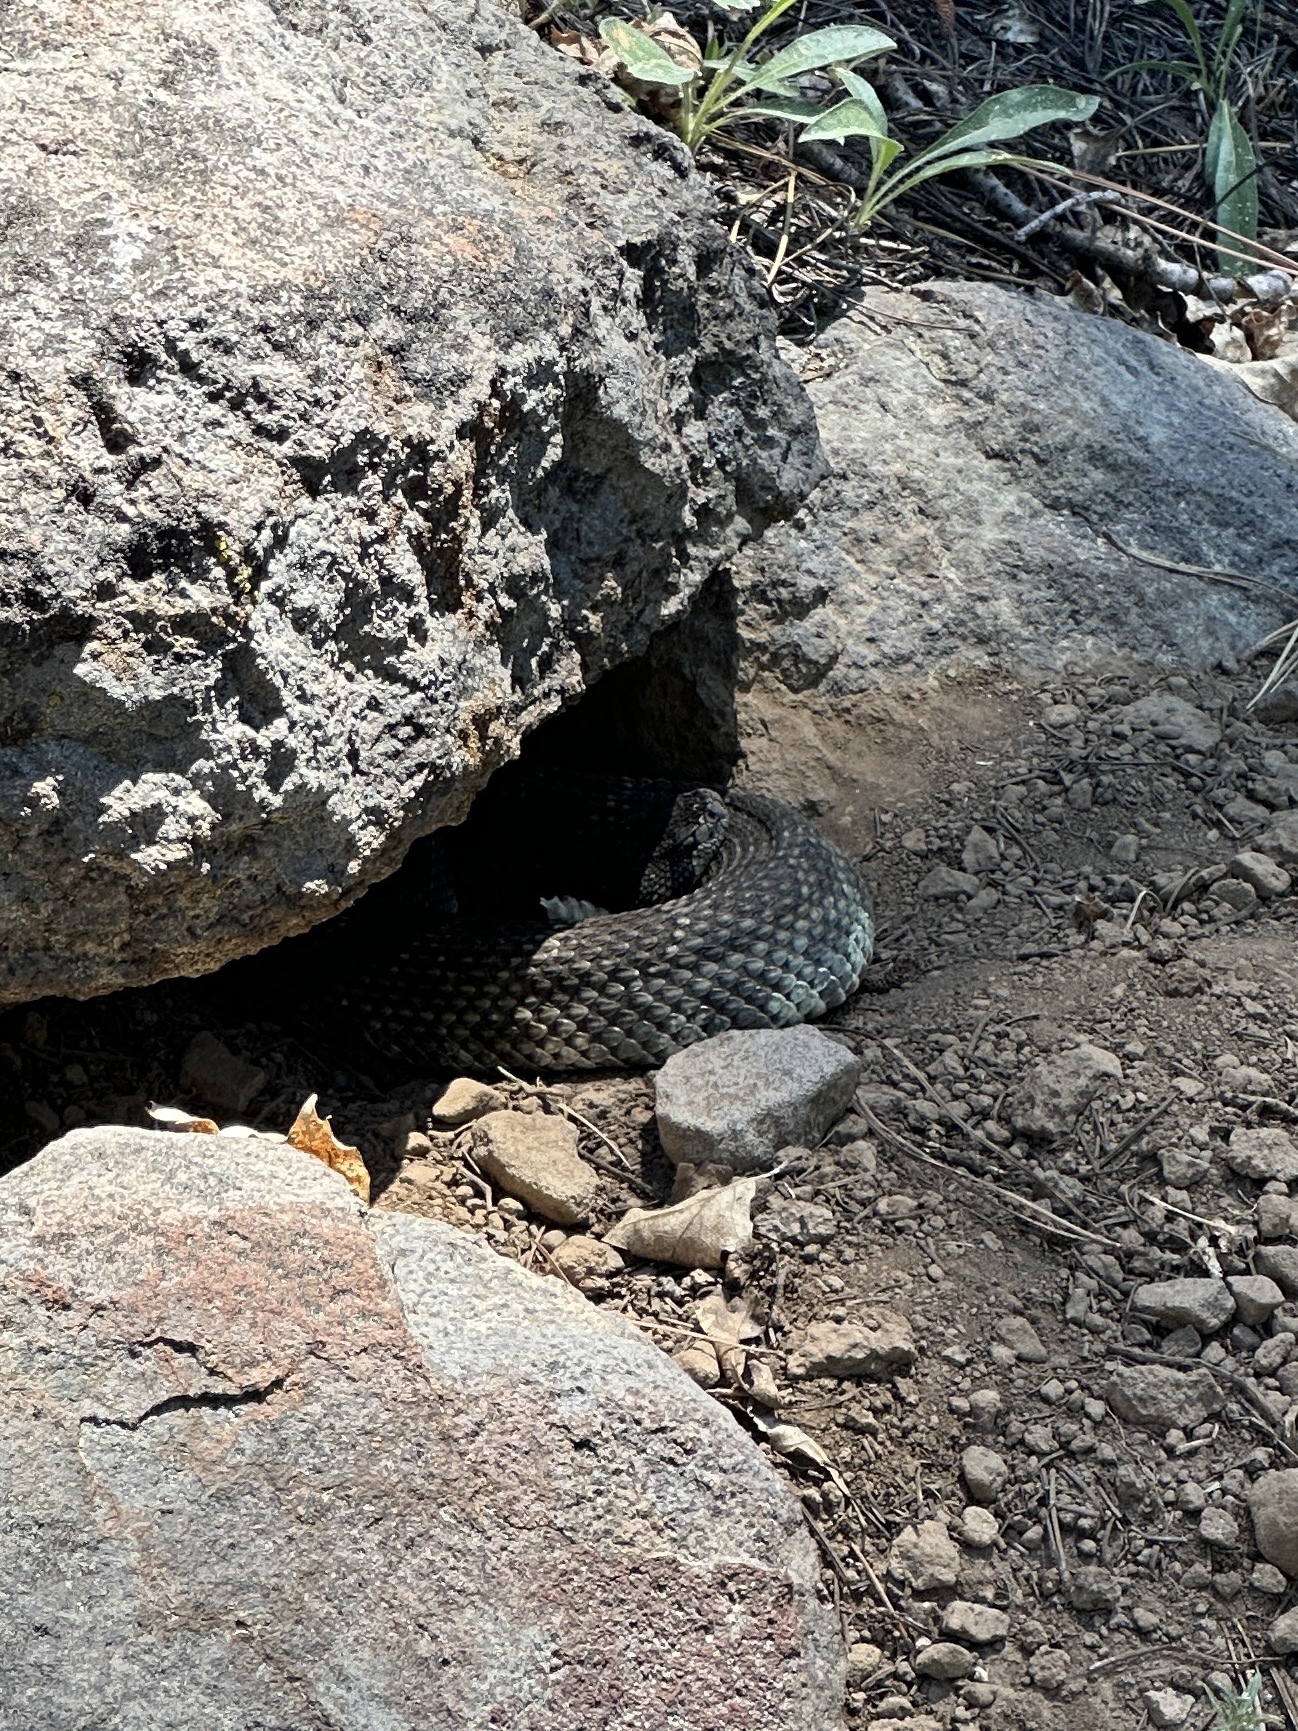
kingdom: Animalia
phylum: Chordata
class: Squamata
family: Viperidae
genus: Crotalus
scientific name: Crotalus oreganus
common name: Abyssus
